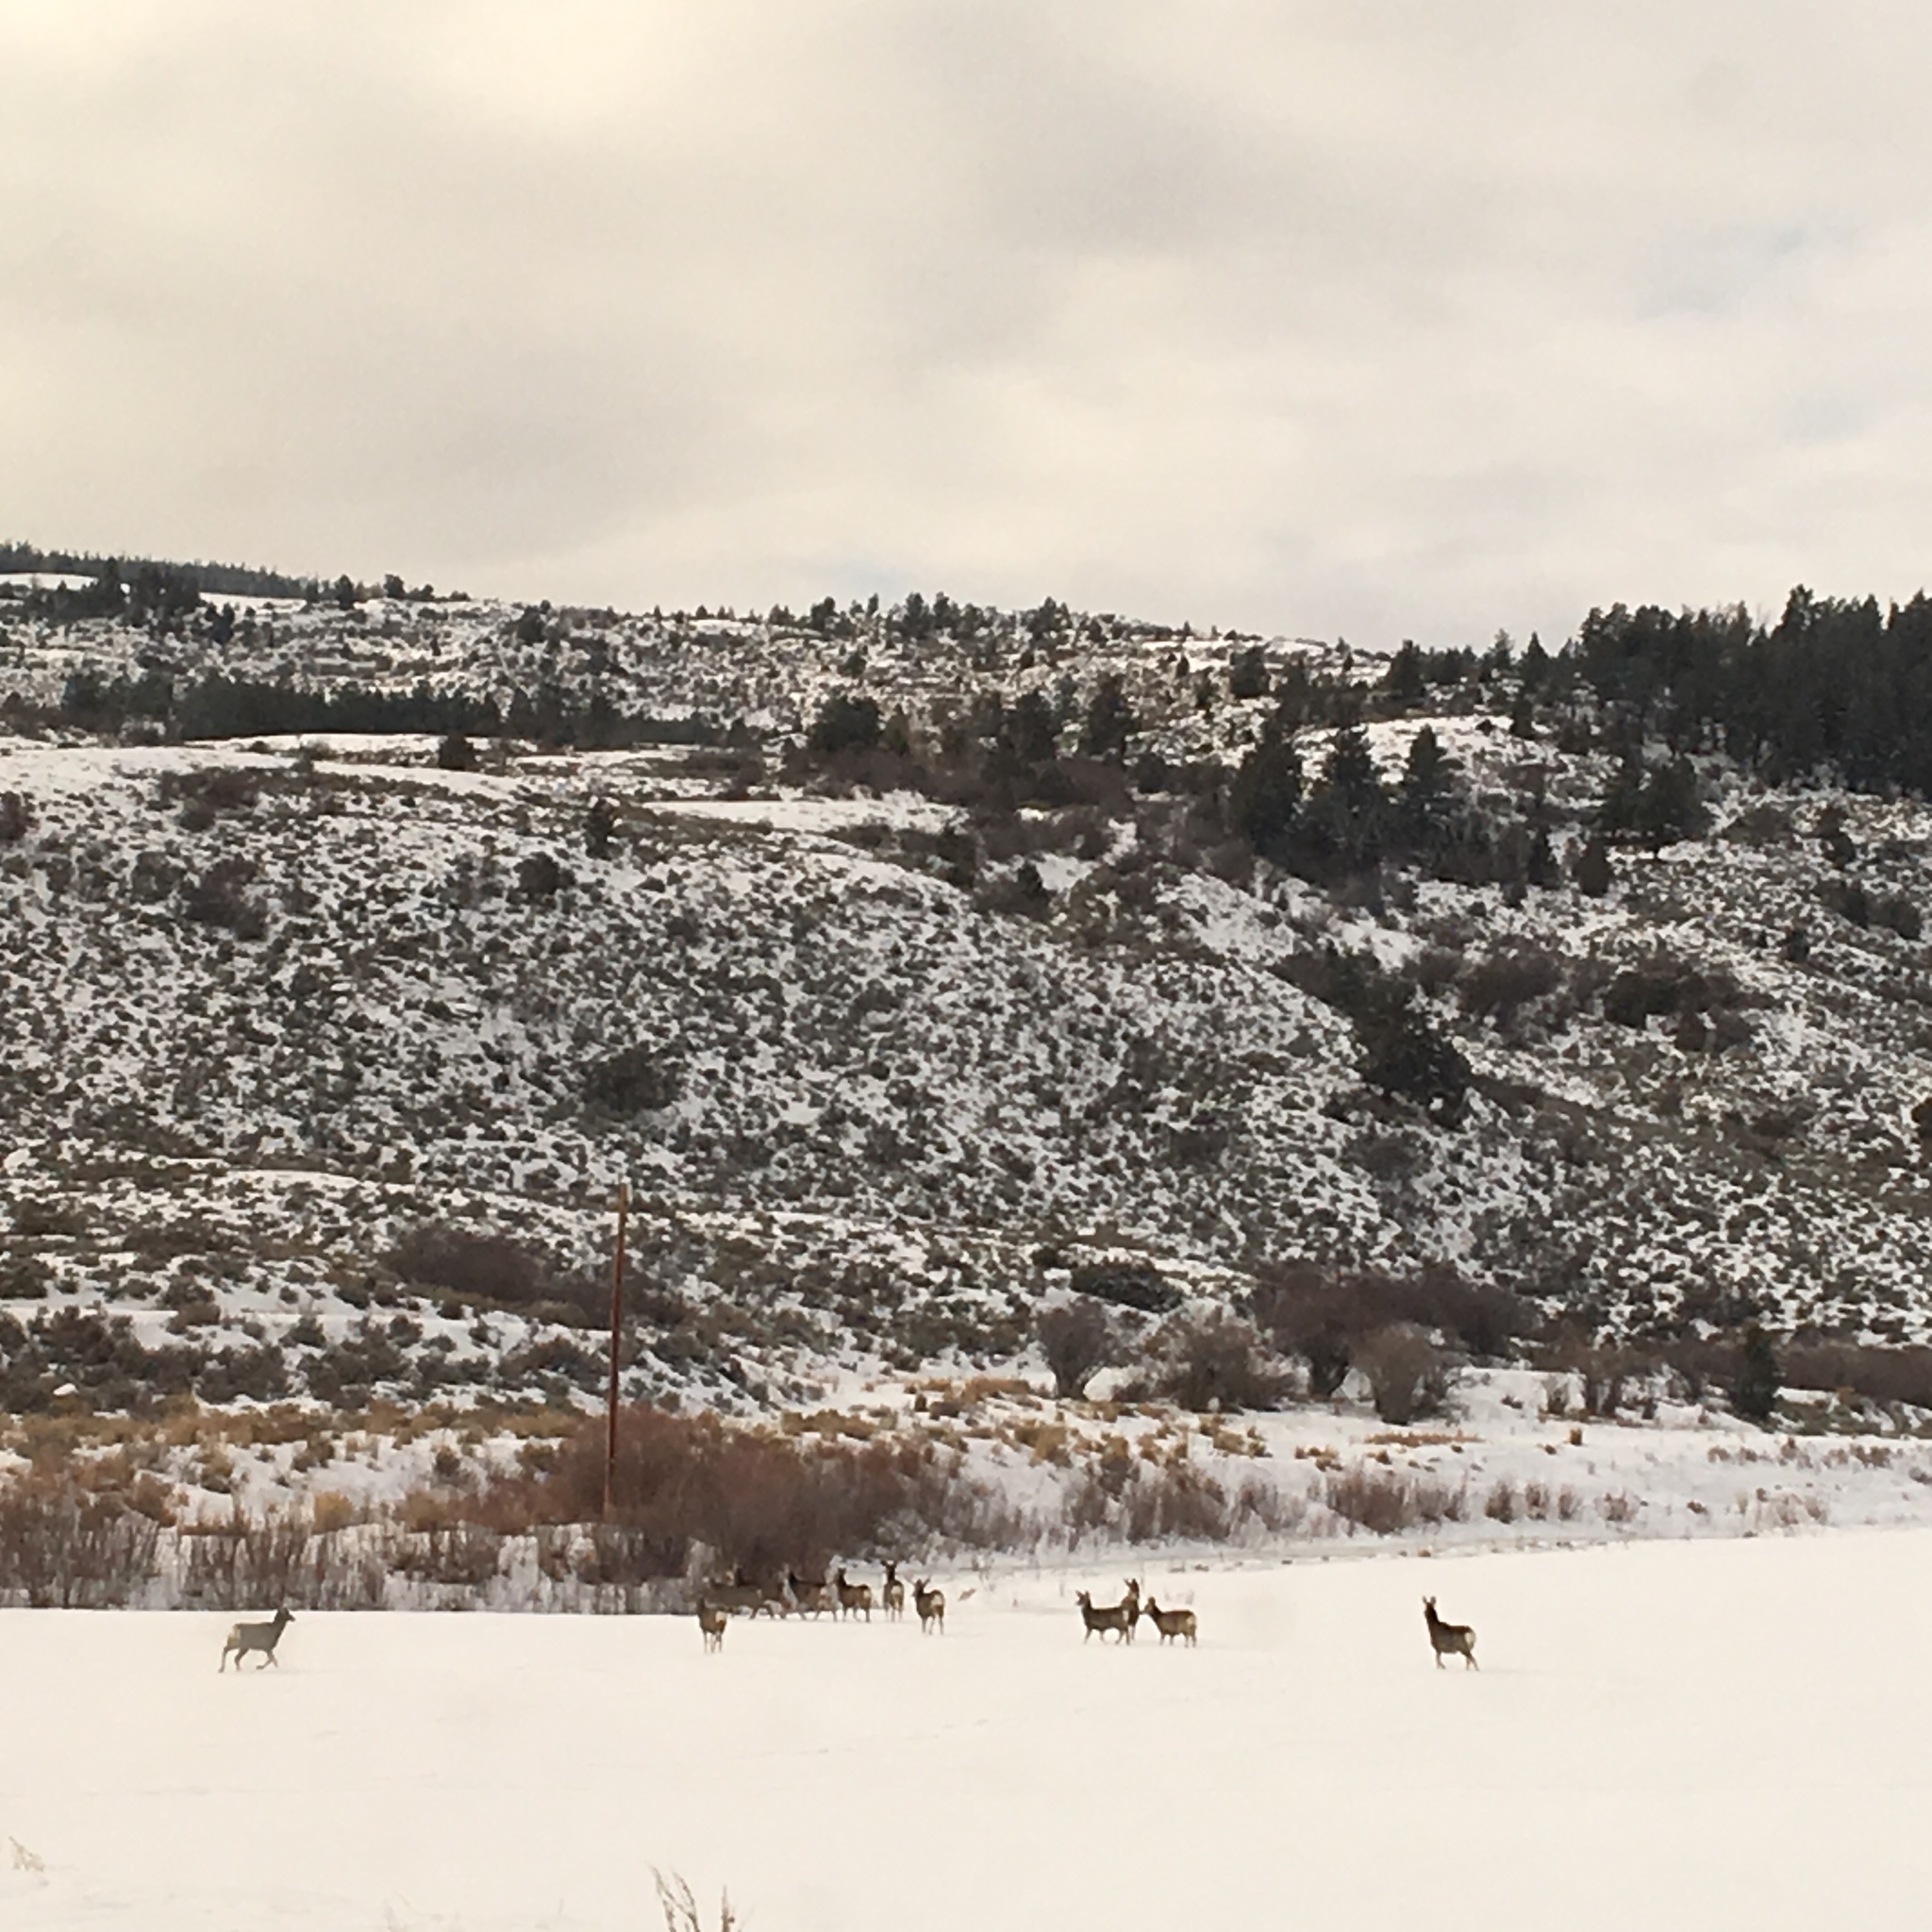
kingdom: Animalia
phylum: Chordata
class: Mammalia
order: Artiodactyla
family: Cervidae
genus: Odocoileus
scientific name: Odocoileus hemionus
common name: Mule deer
